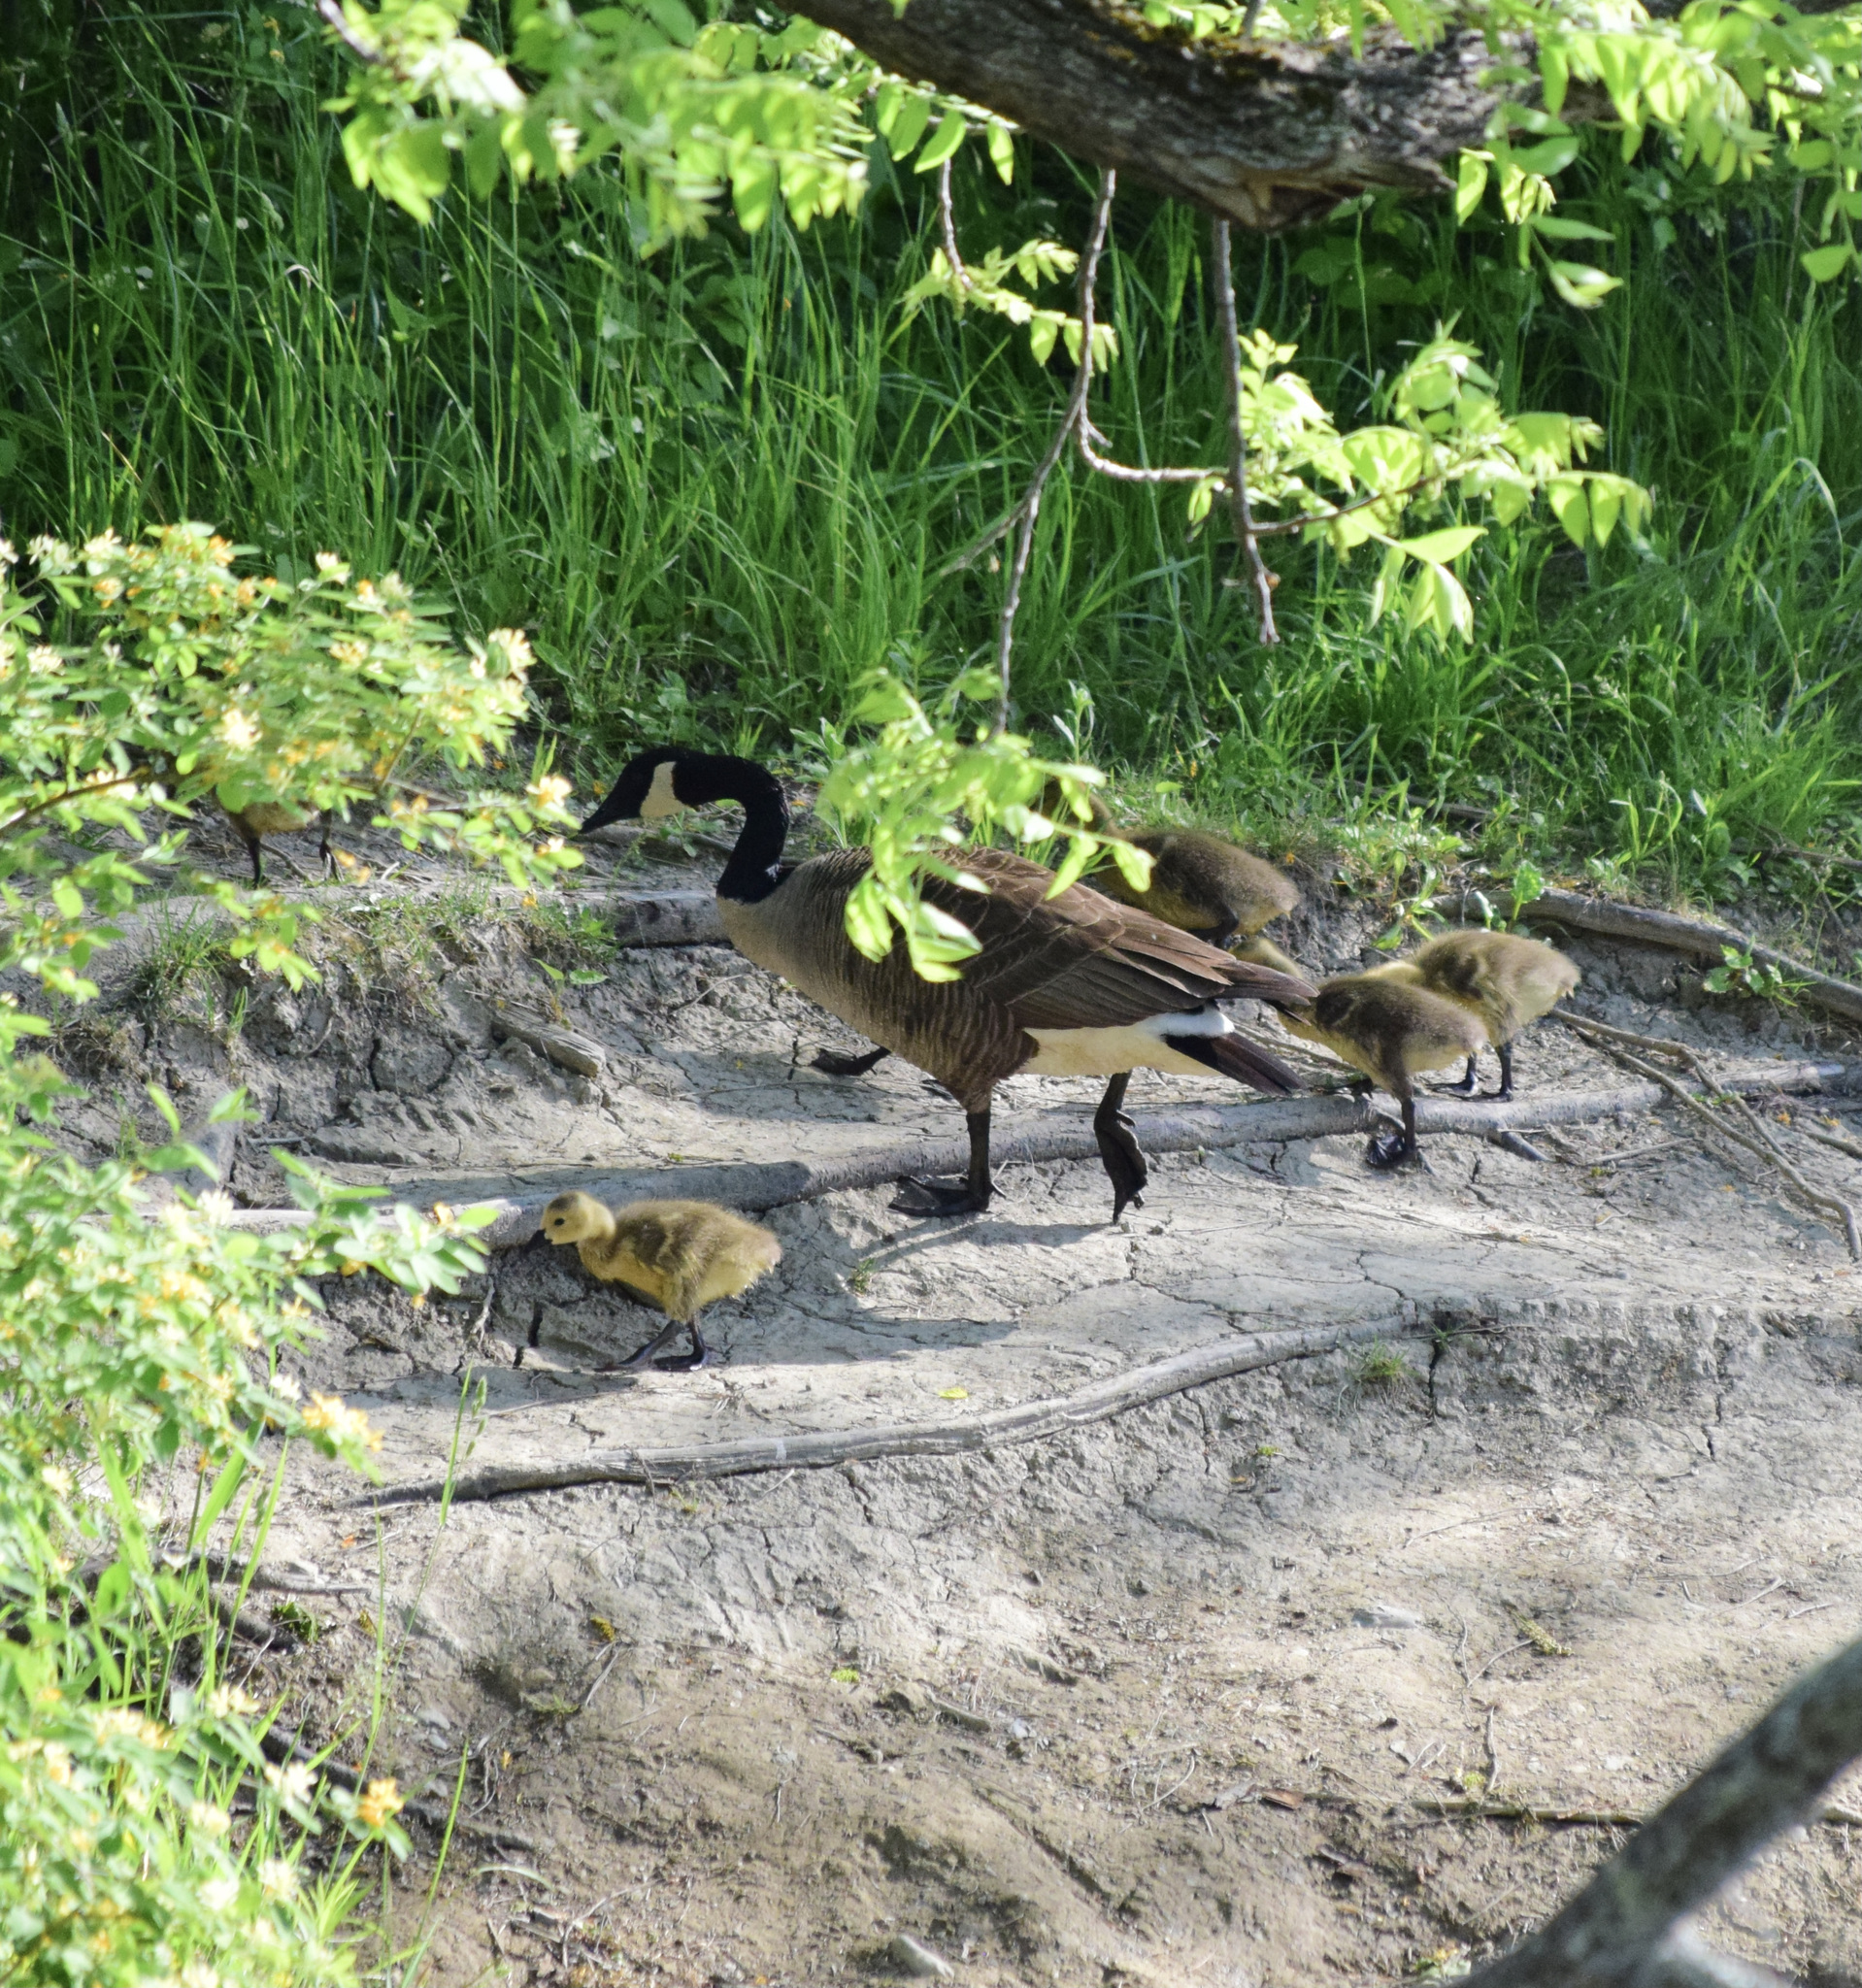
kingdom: Animalia
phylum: Chordata
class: Aves
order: Anseriformes
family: Anatidae
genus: Branta
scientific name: Branta canadensis
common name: Canada goose
